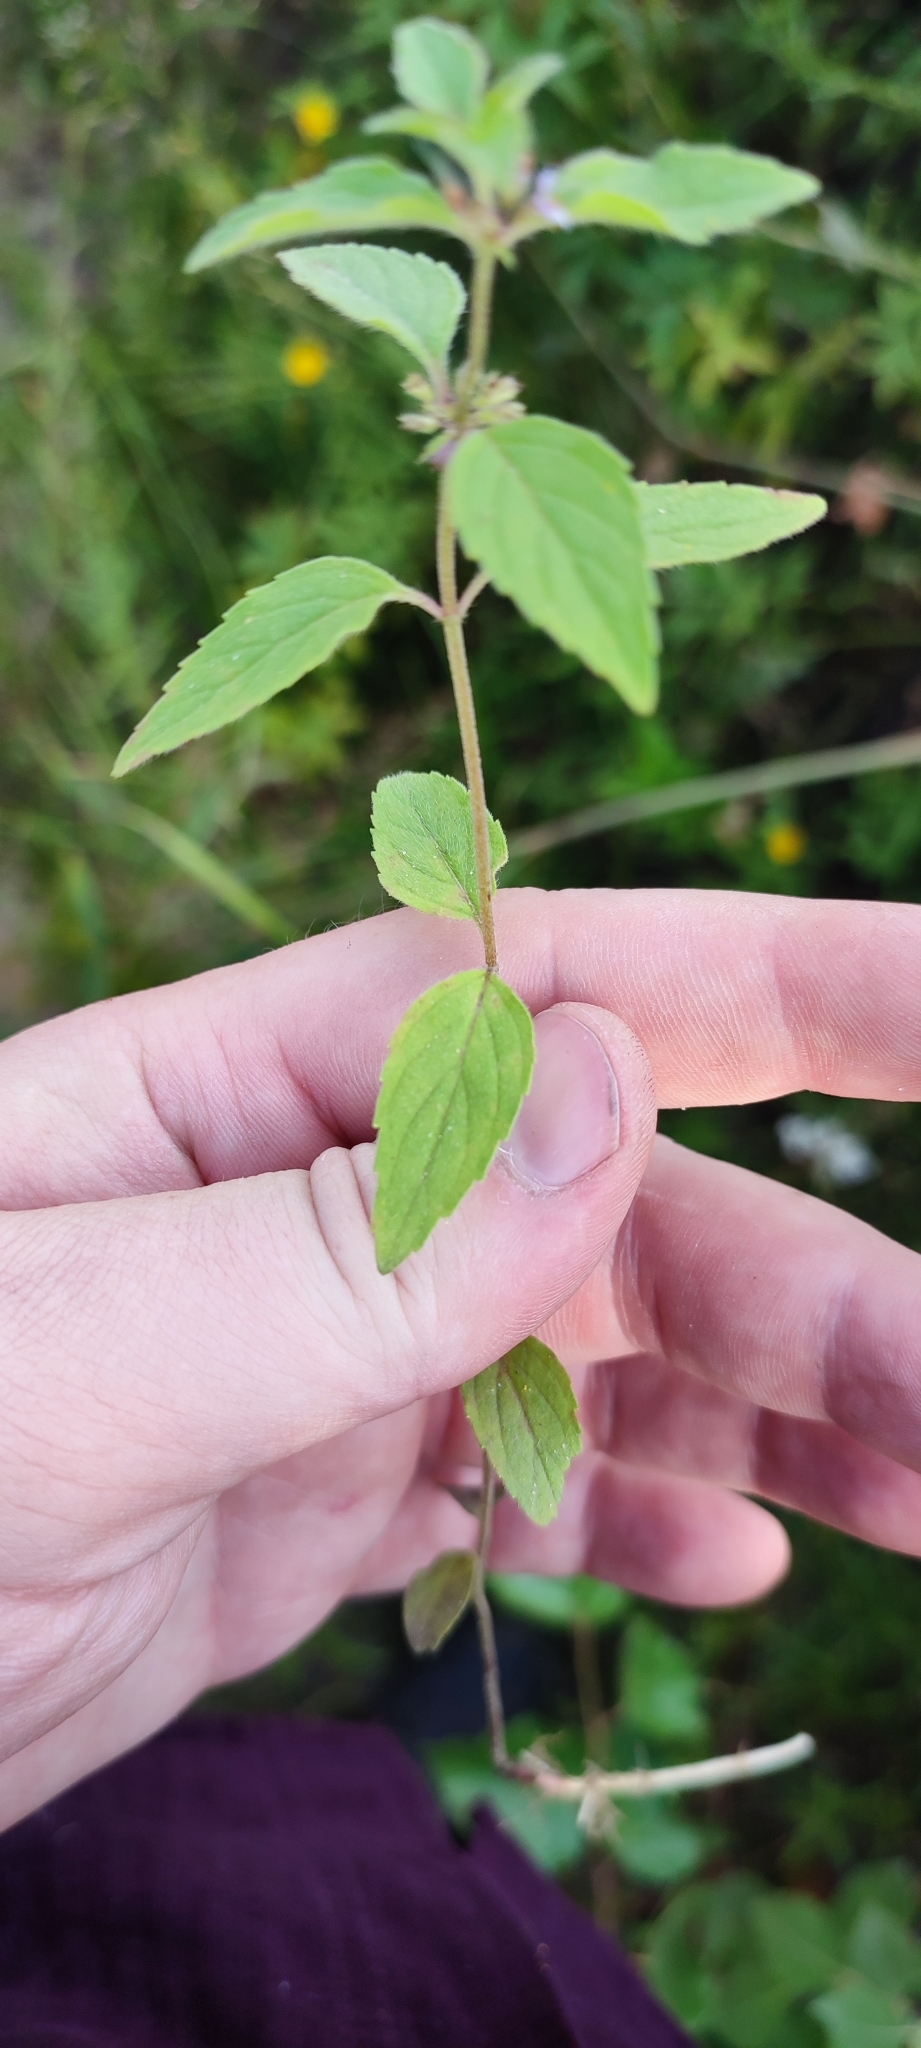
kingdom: Plantae
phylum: Tracheophyta
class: Magnoliopsida
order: Lamiales
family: Lamiaceae
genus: Mentha
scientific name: Mentha arvensis
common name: Corn mint
